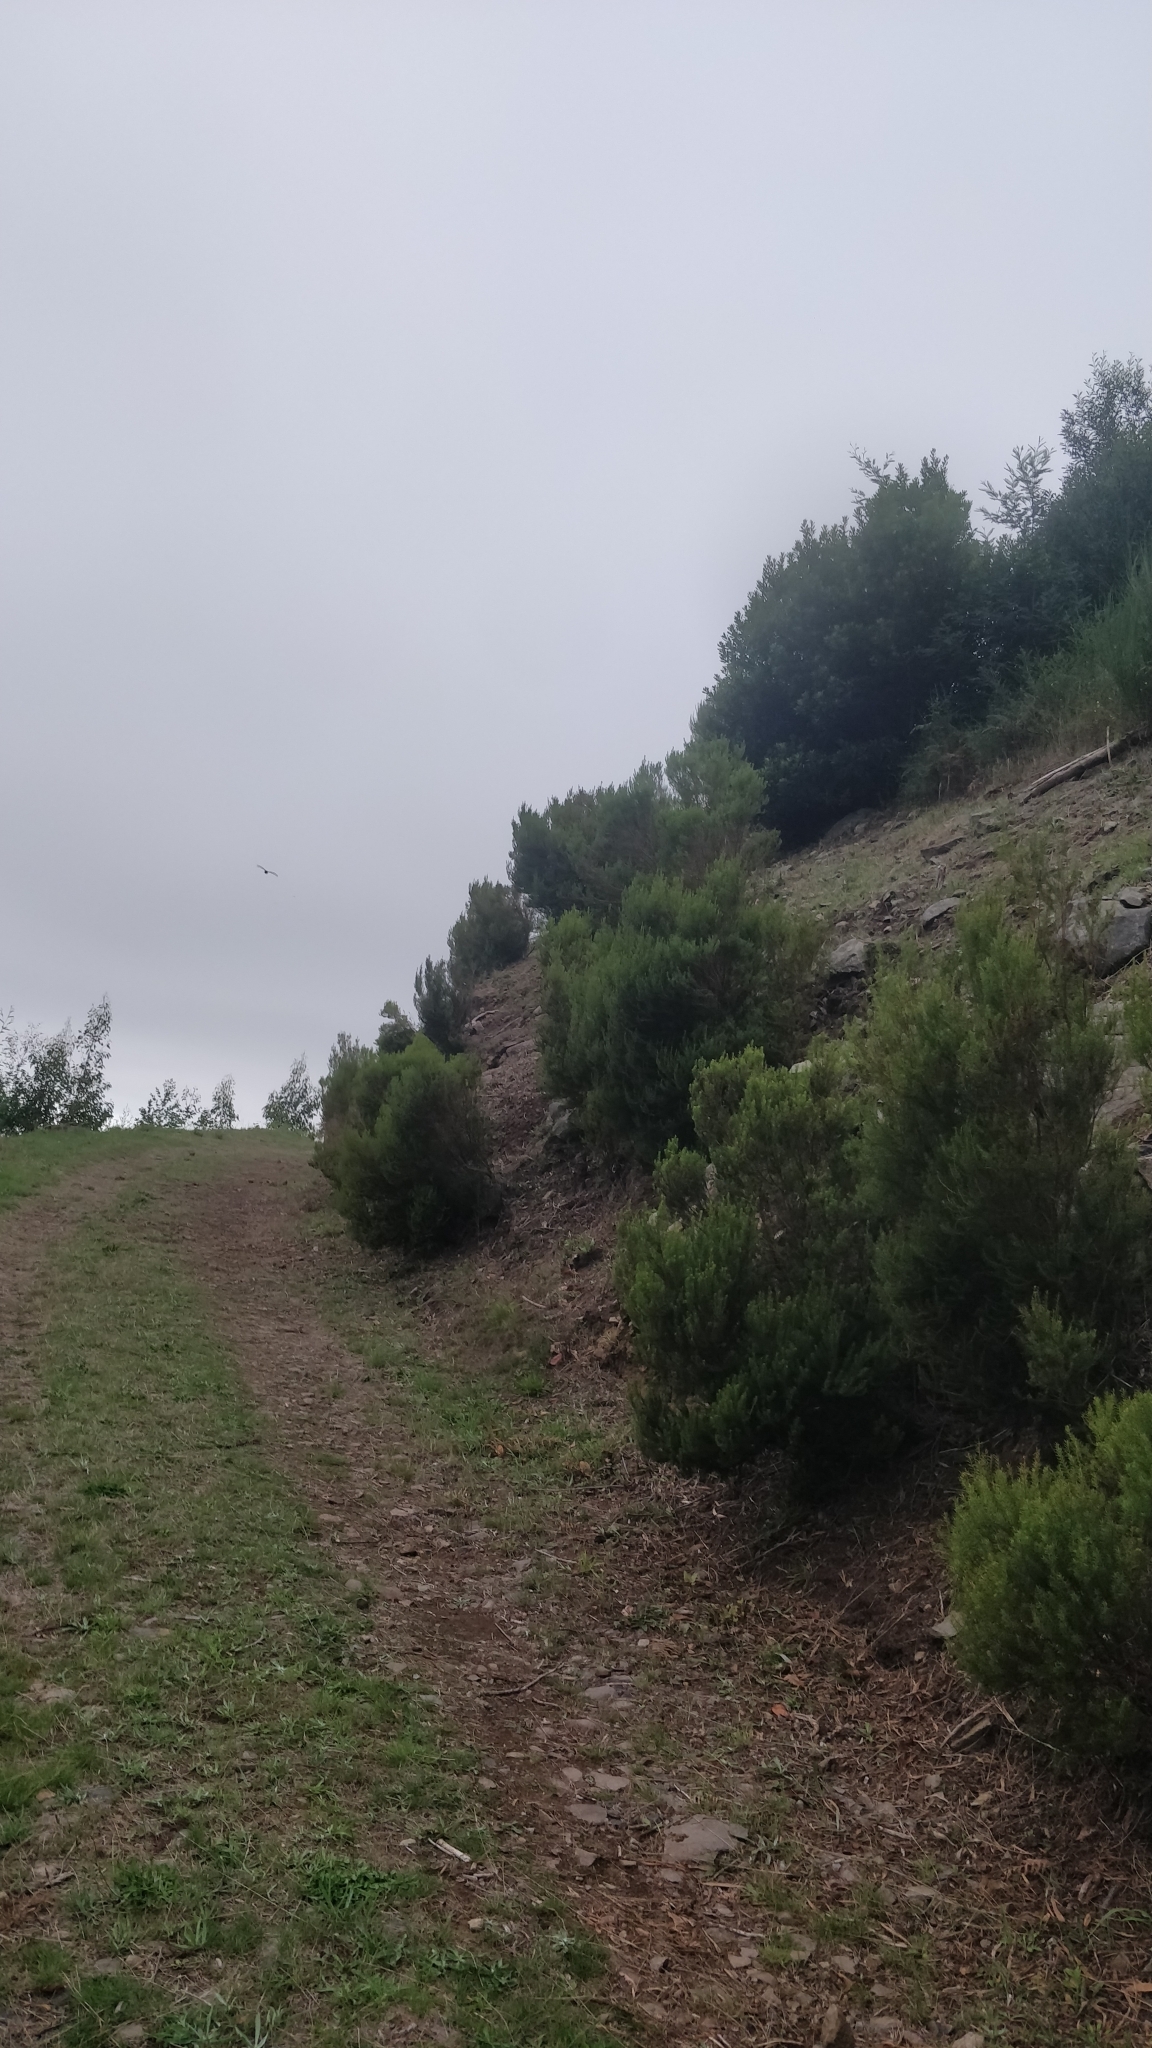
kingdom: Plantae
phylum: Tracheophyta
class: Magnoliopsida
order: Ericales
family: Ericaceae
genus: Erica
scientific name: Erica platycodon
